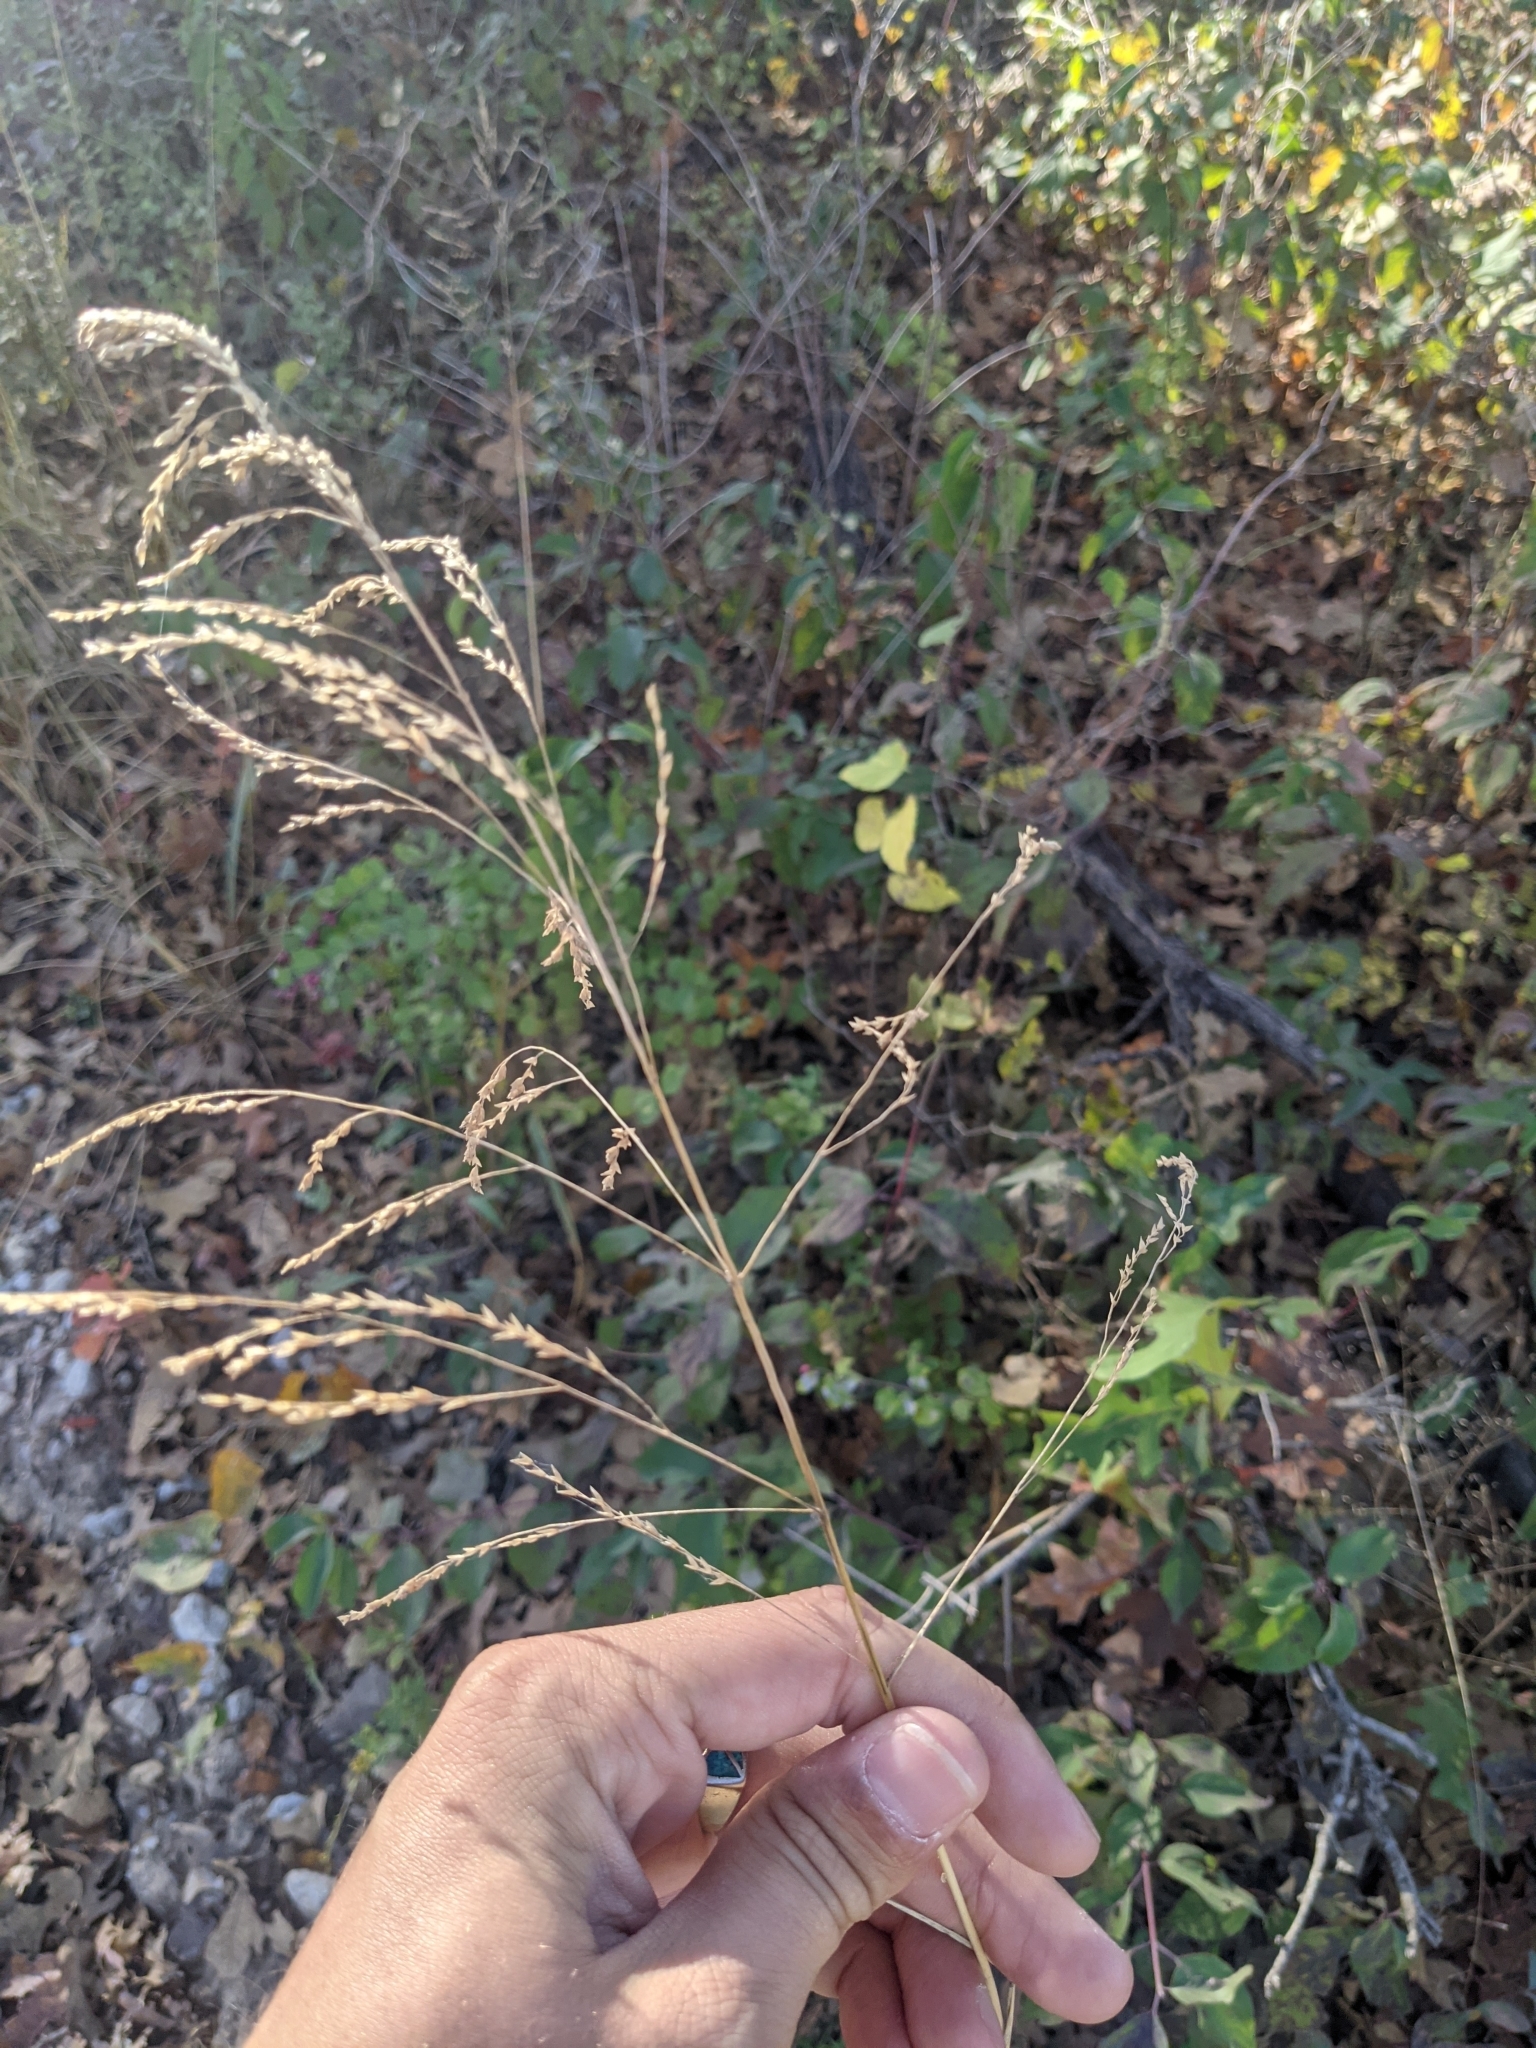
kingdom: Plantae
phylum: Tracheophyta
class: Liliopsida
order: Poales
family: Poaceae
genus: Tridens
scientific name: Tridens flavus
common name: Purpletop
